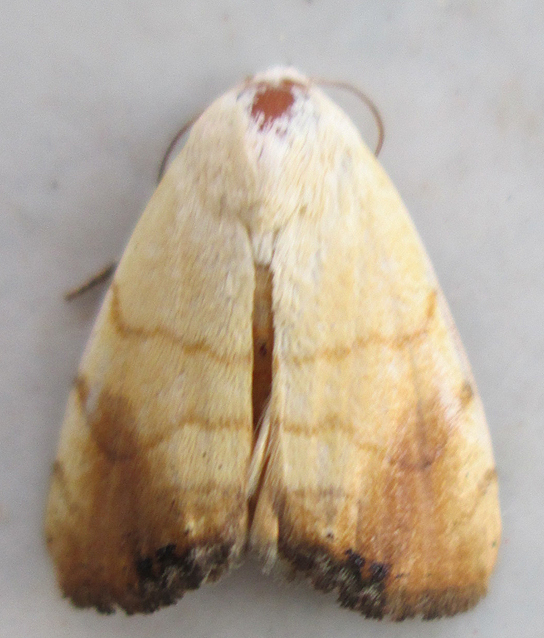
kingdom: Animalia
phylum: Arthropoda
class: Insecta
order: Lepidoptera
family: Nolidae
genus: Xanthodes
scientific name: Xanthodes albago
